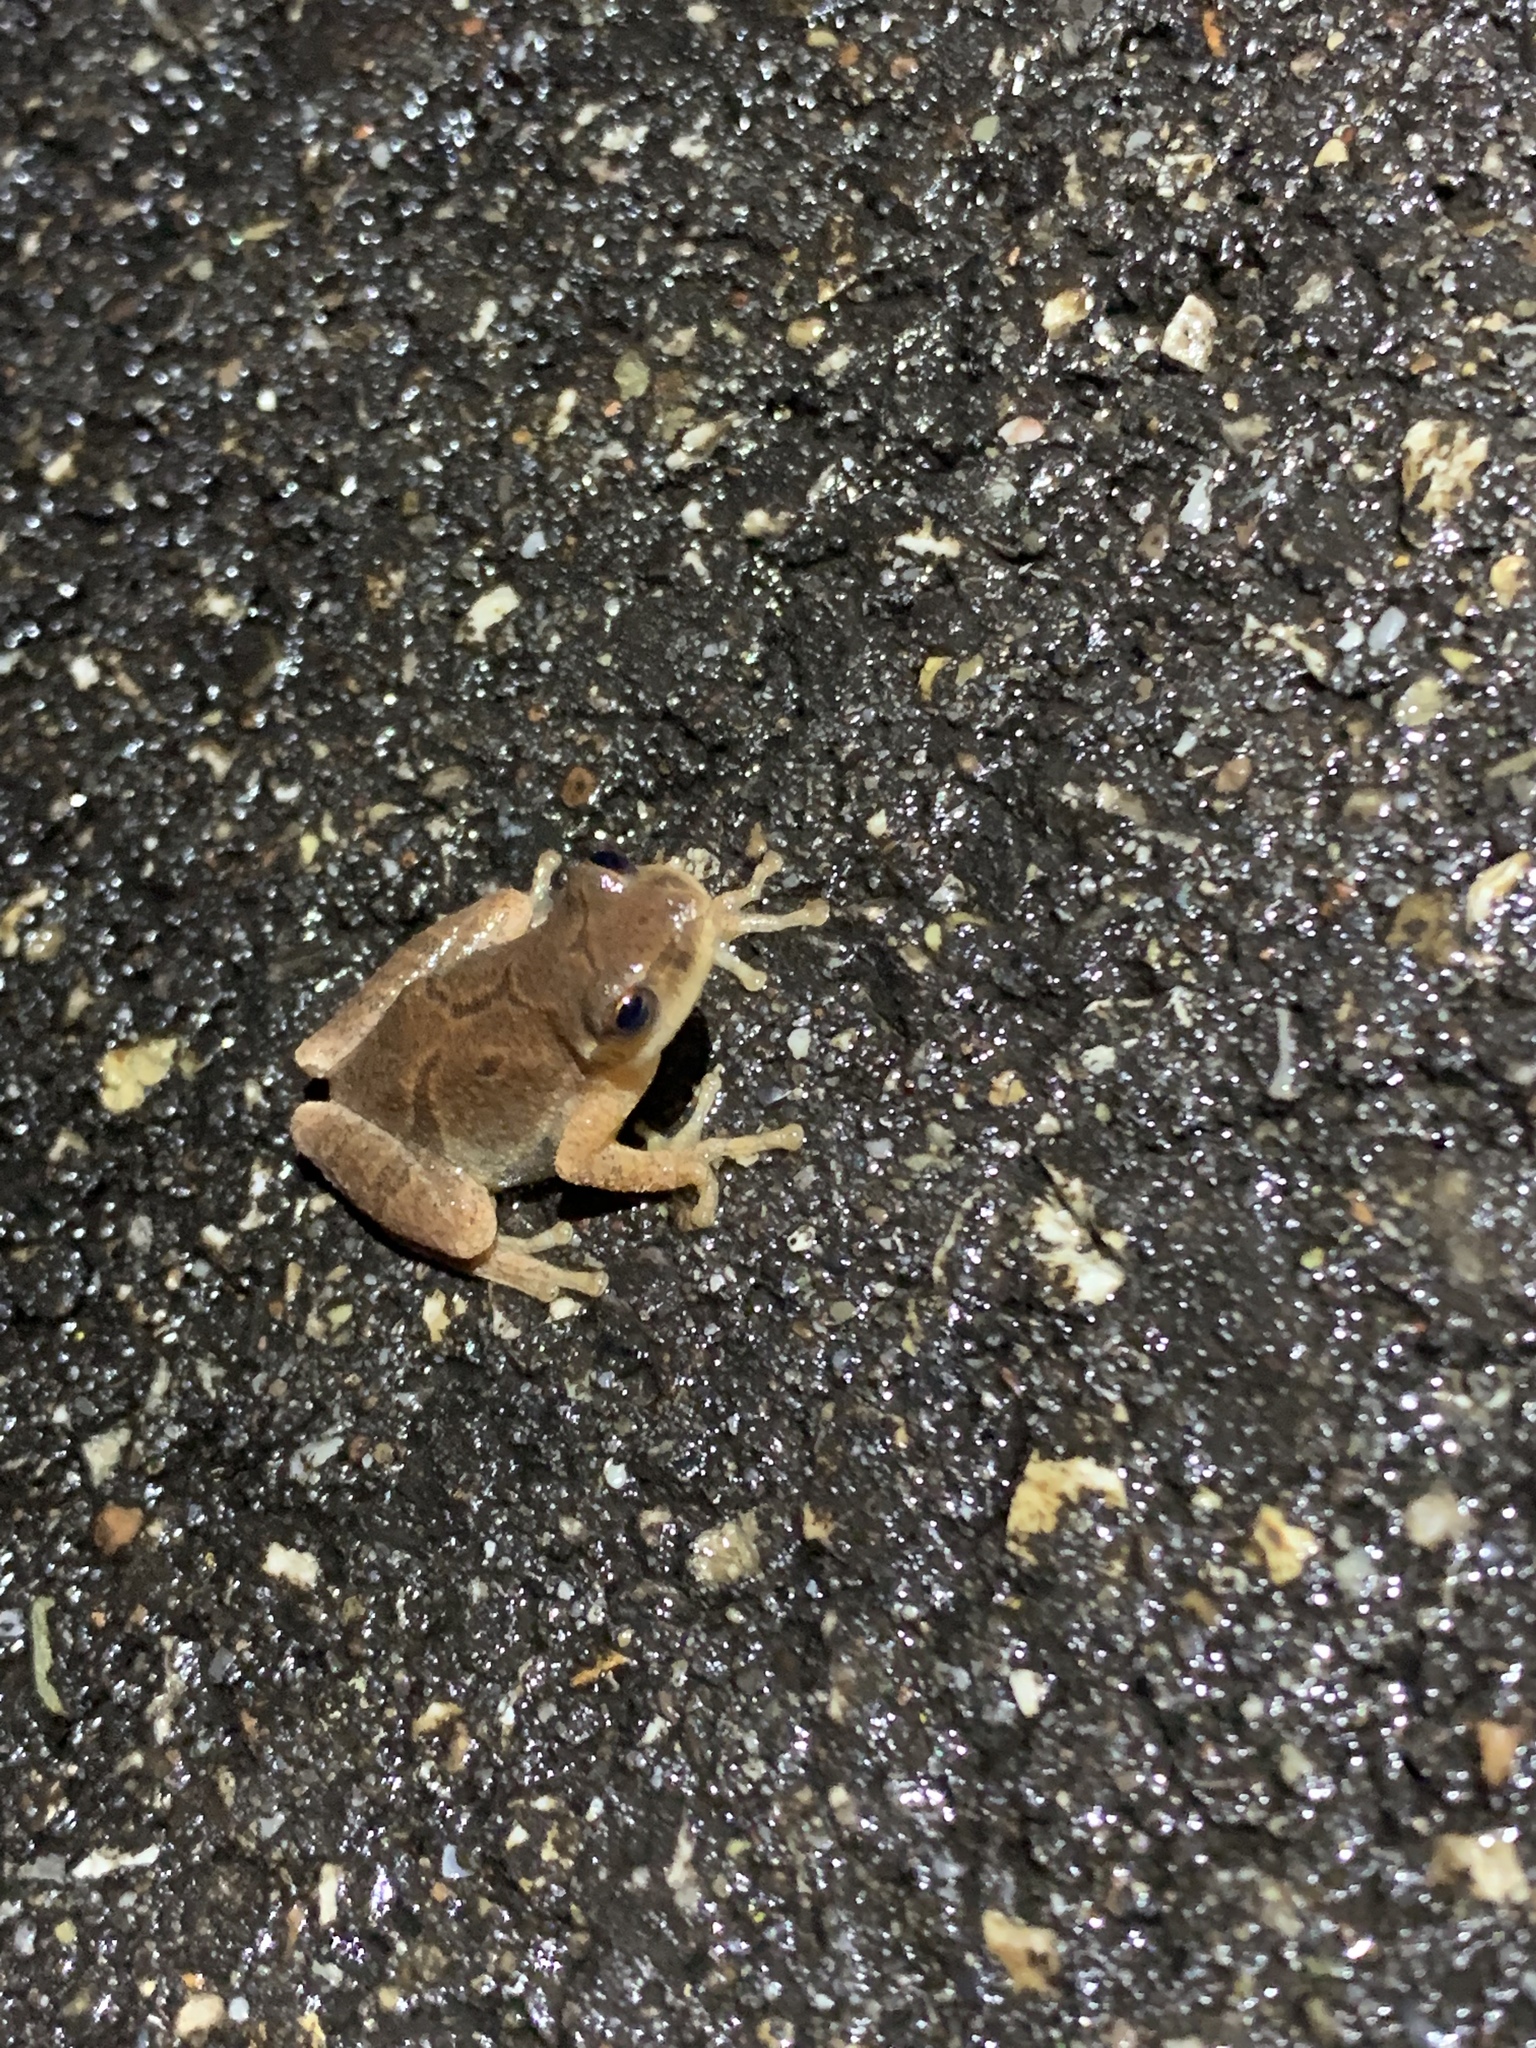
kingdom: Animalia
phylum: Chordata
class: Amphibia
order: Anura
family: Hylidae
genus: Pseudacris
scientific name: Pseudacris crucifer
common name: Spring peeper
